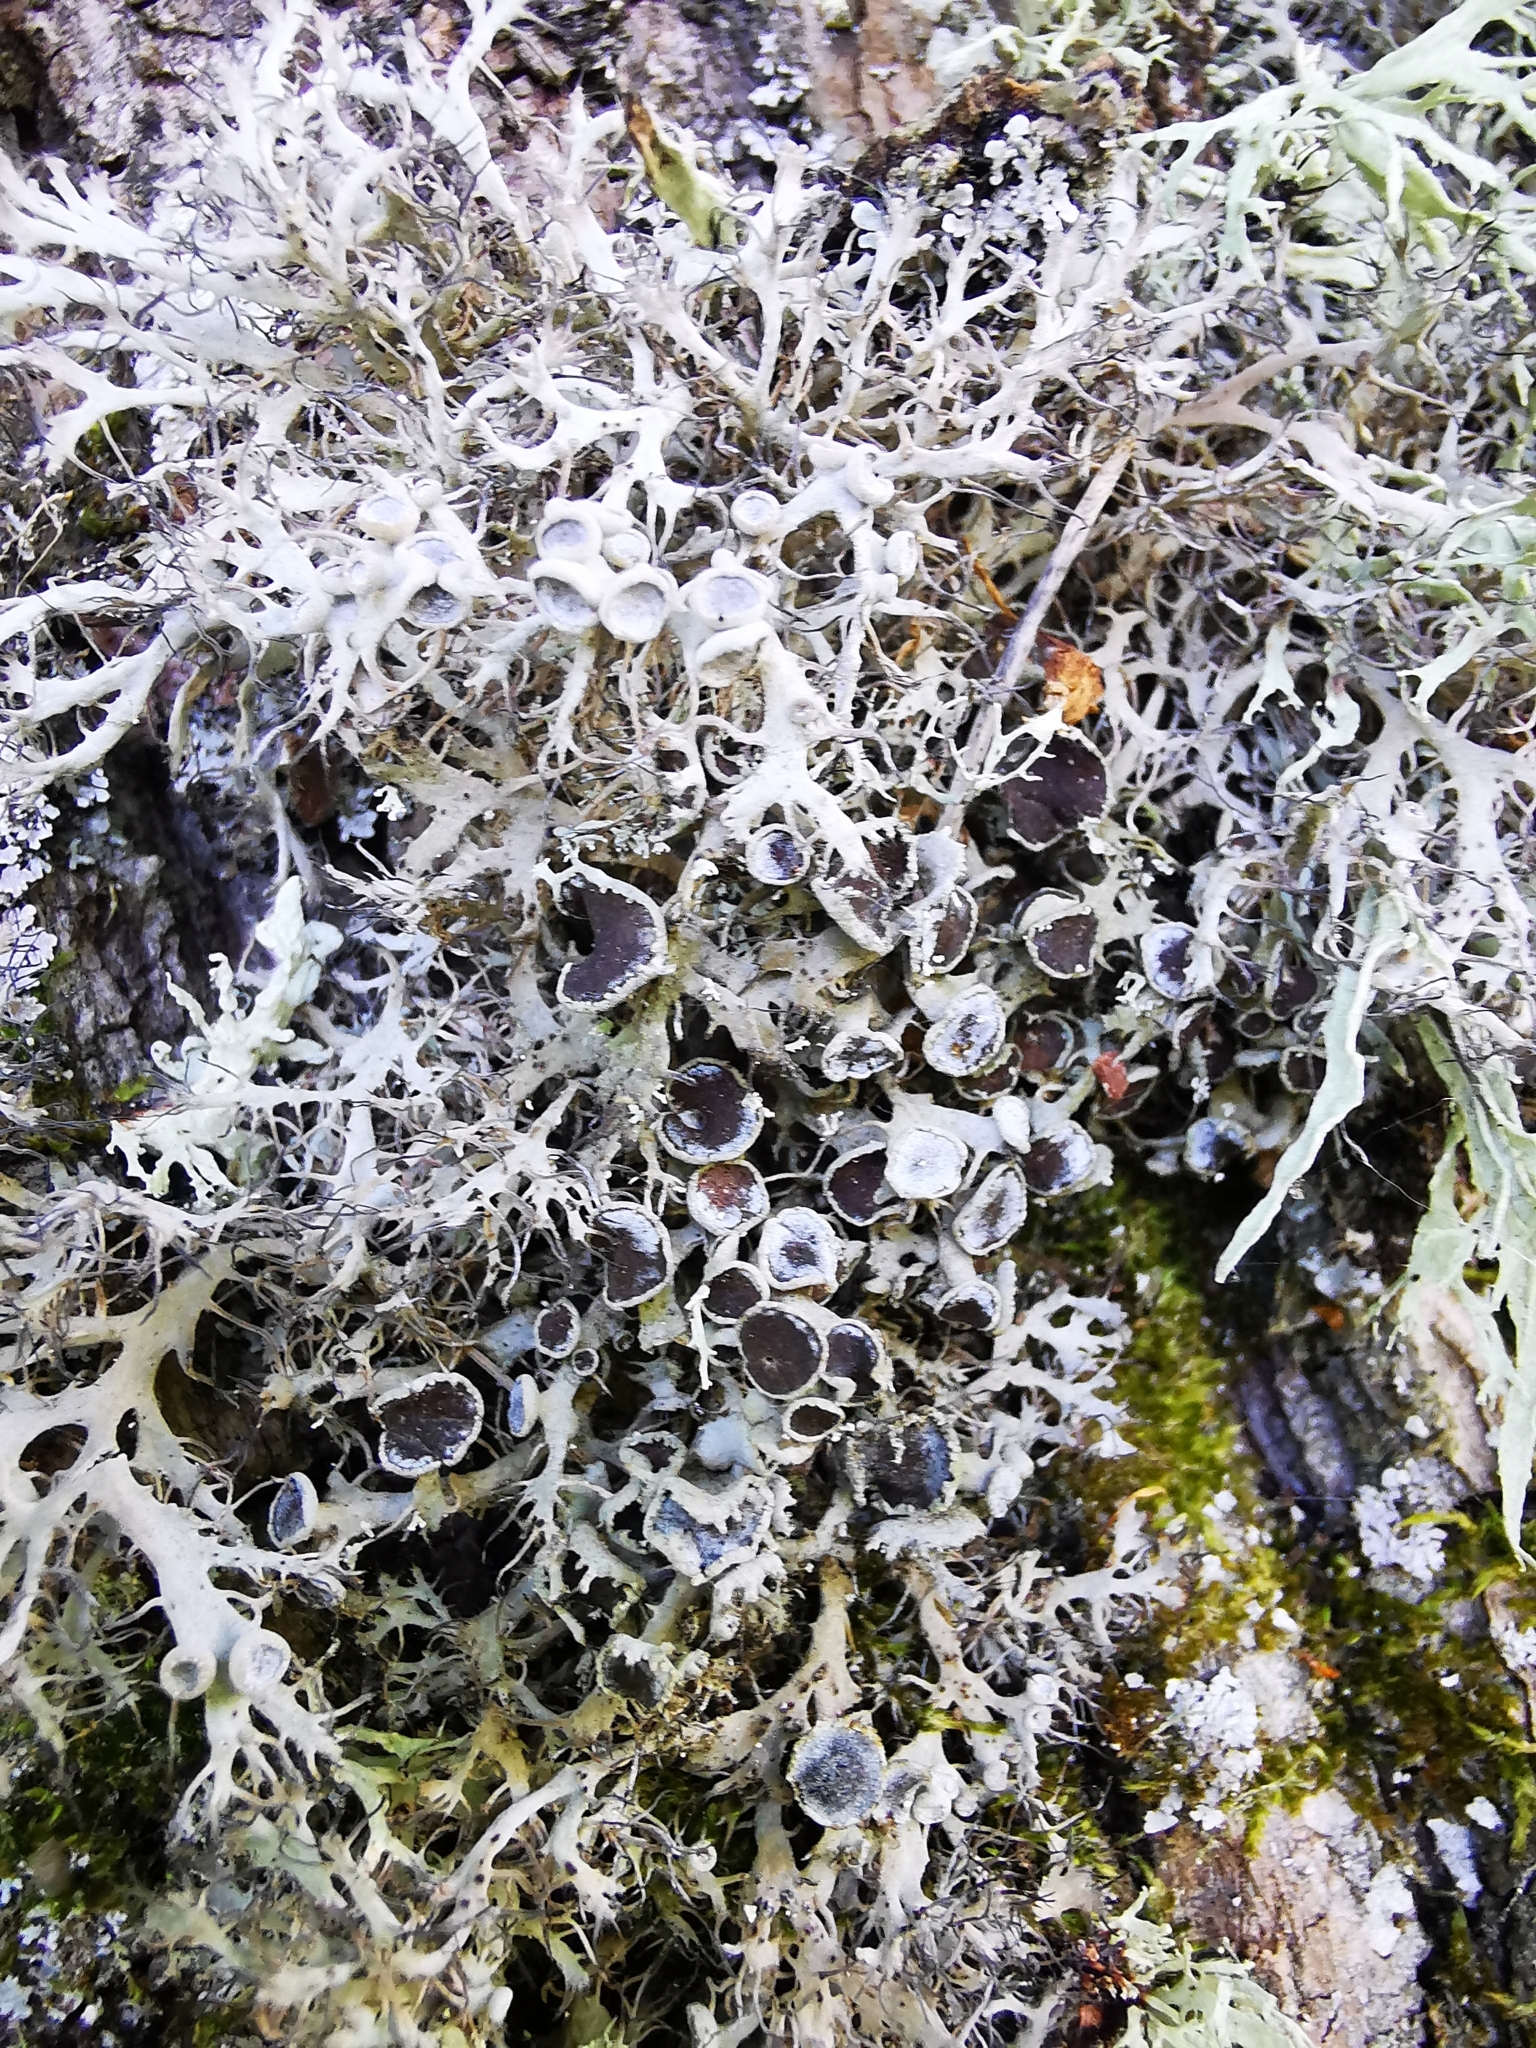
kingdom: Fungi
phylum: Ascomycota
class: Lecanoromycetes
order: Caliciales
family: Physciaceae
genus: Anaptychia
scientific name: Anaptychia ciliaris
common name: Great ciliated lichen
